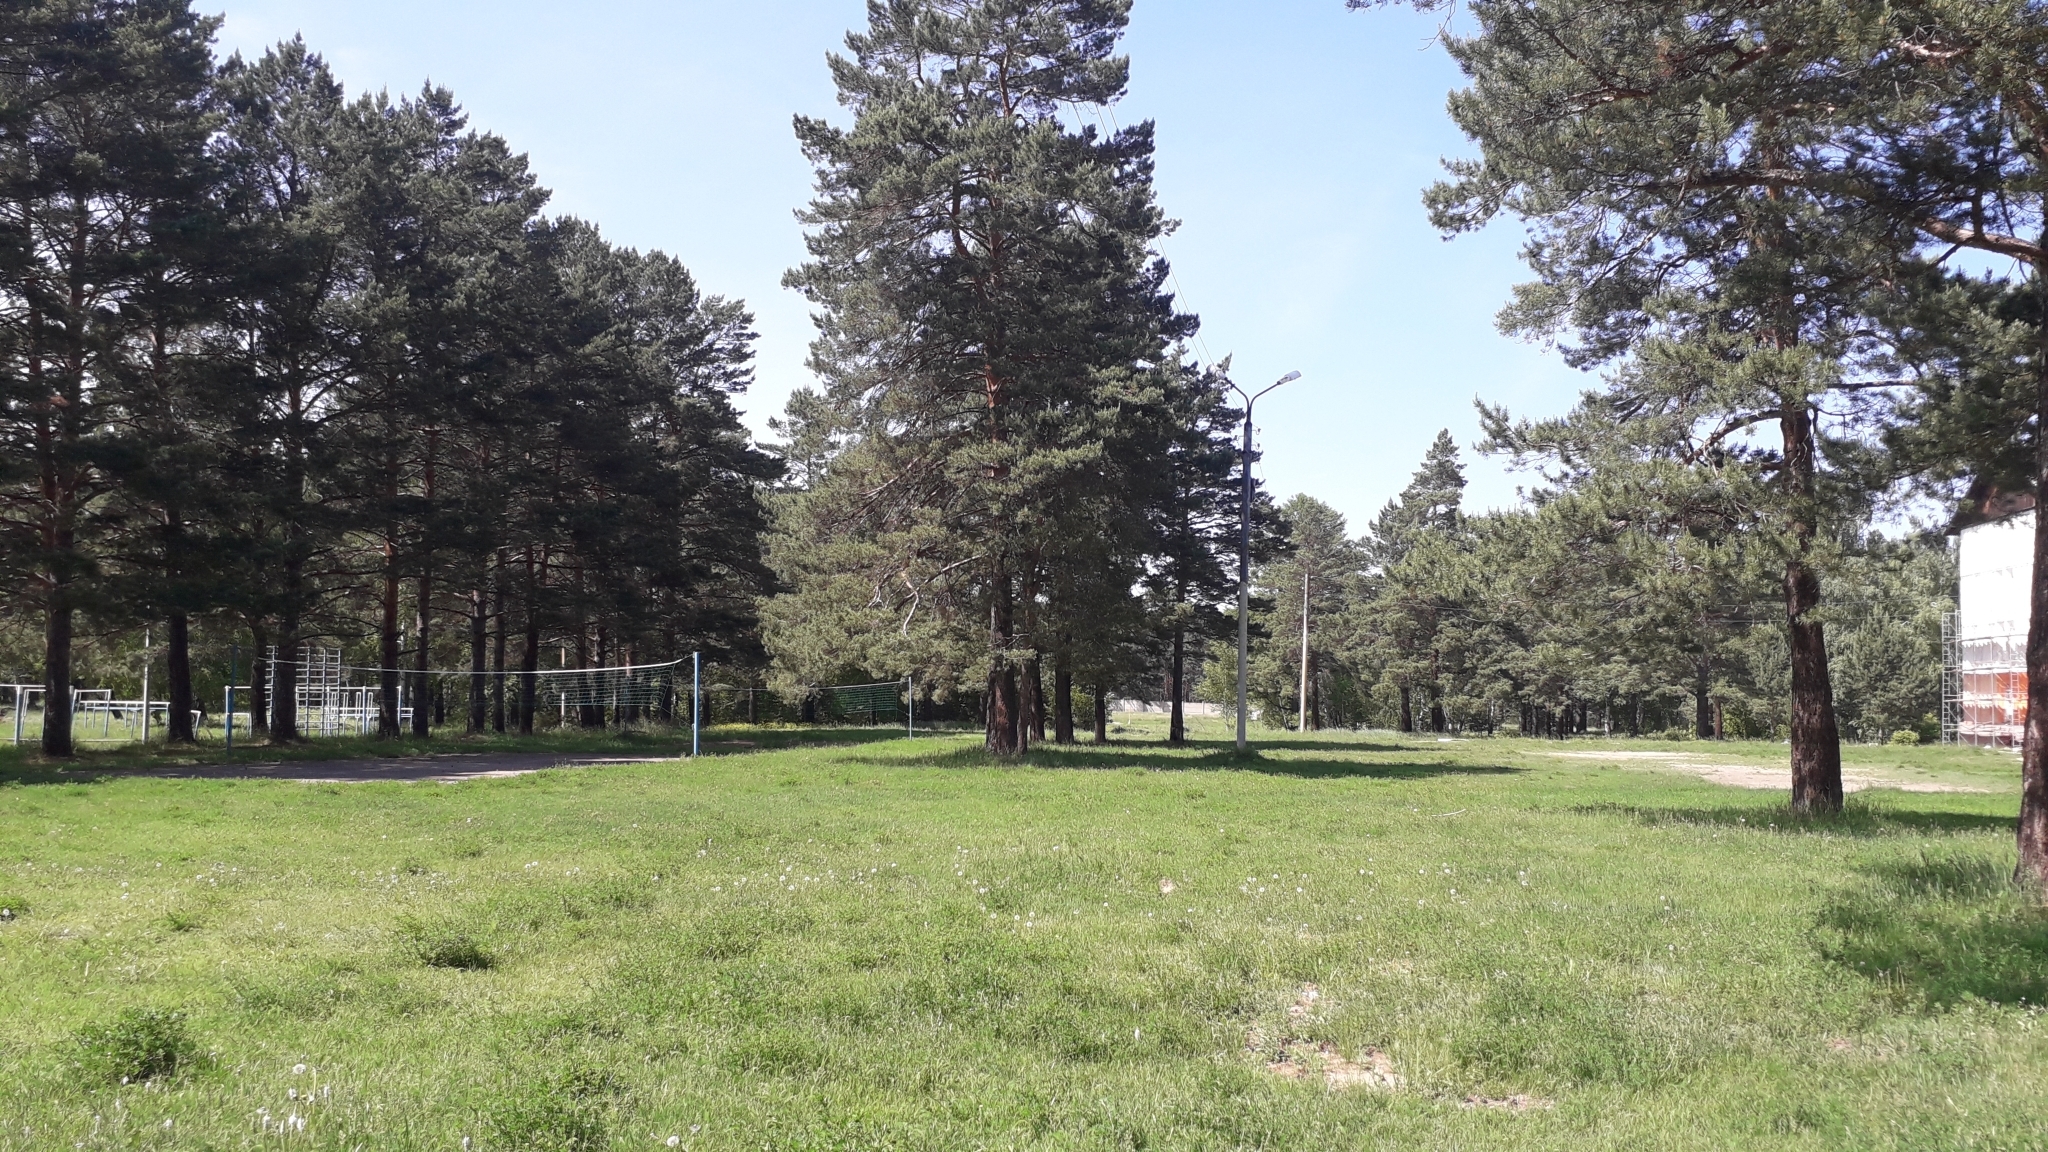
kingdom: Plantae
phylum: Tracheophyta
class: Pinopsida
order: Pinales
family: Pinaceae
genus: Pinus
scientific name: Pinus sylvestris
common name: Scots pine
